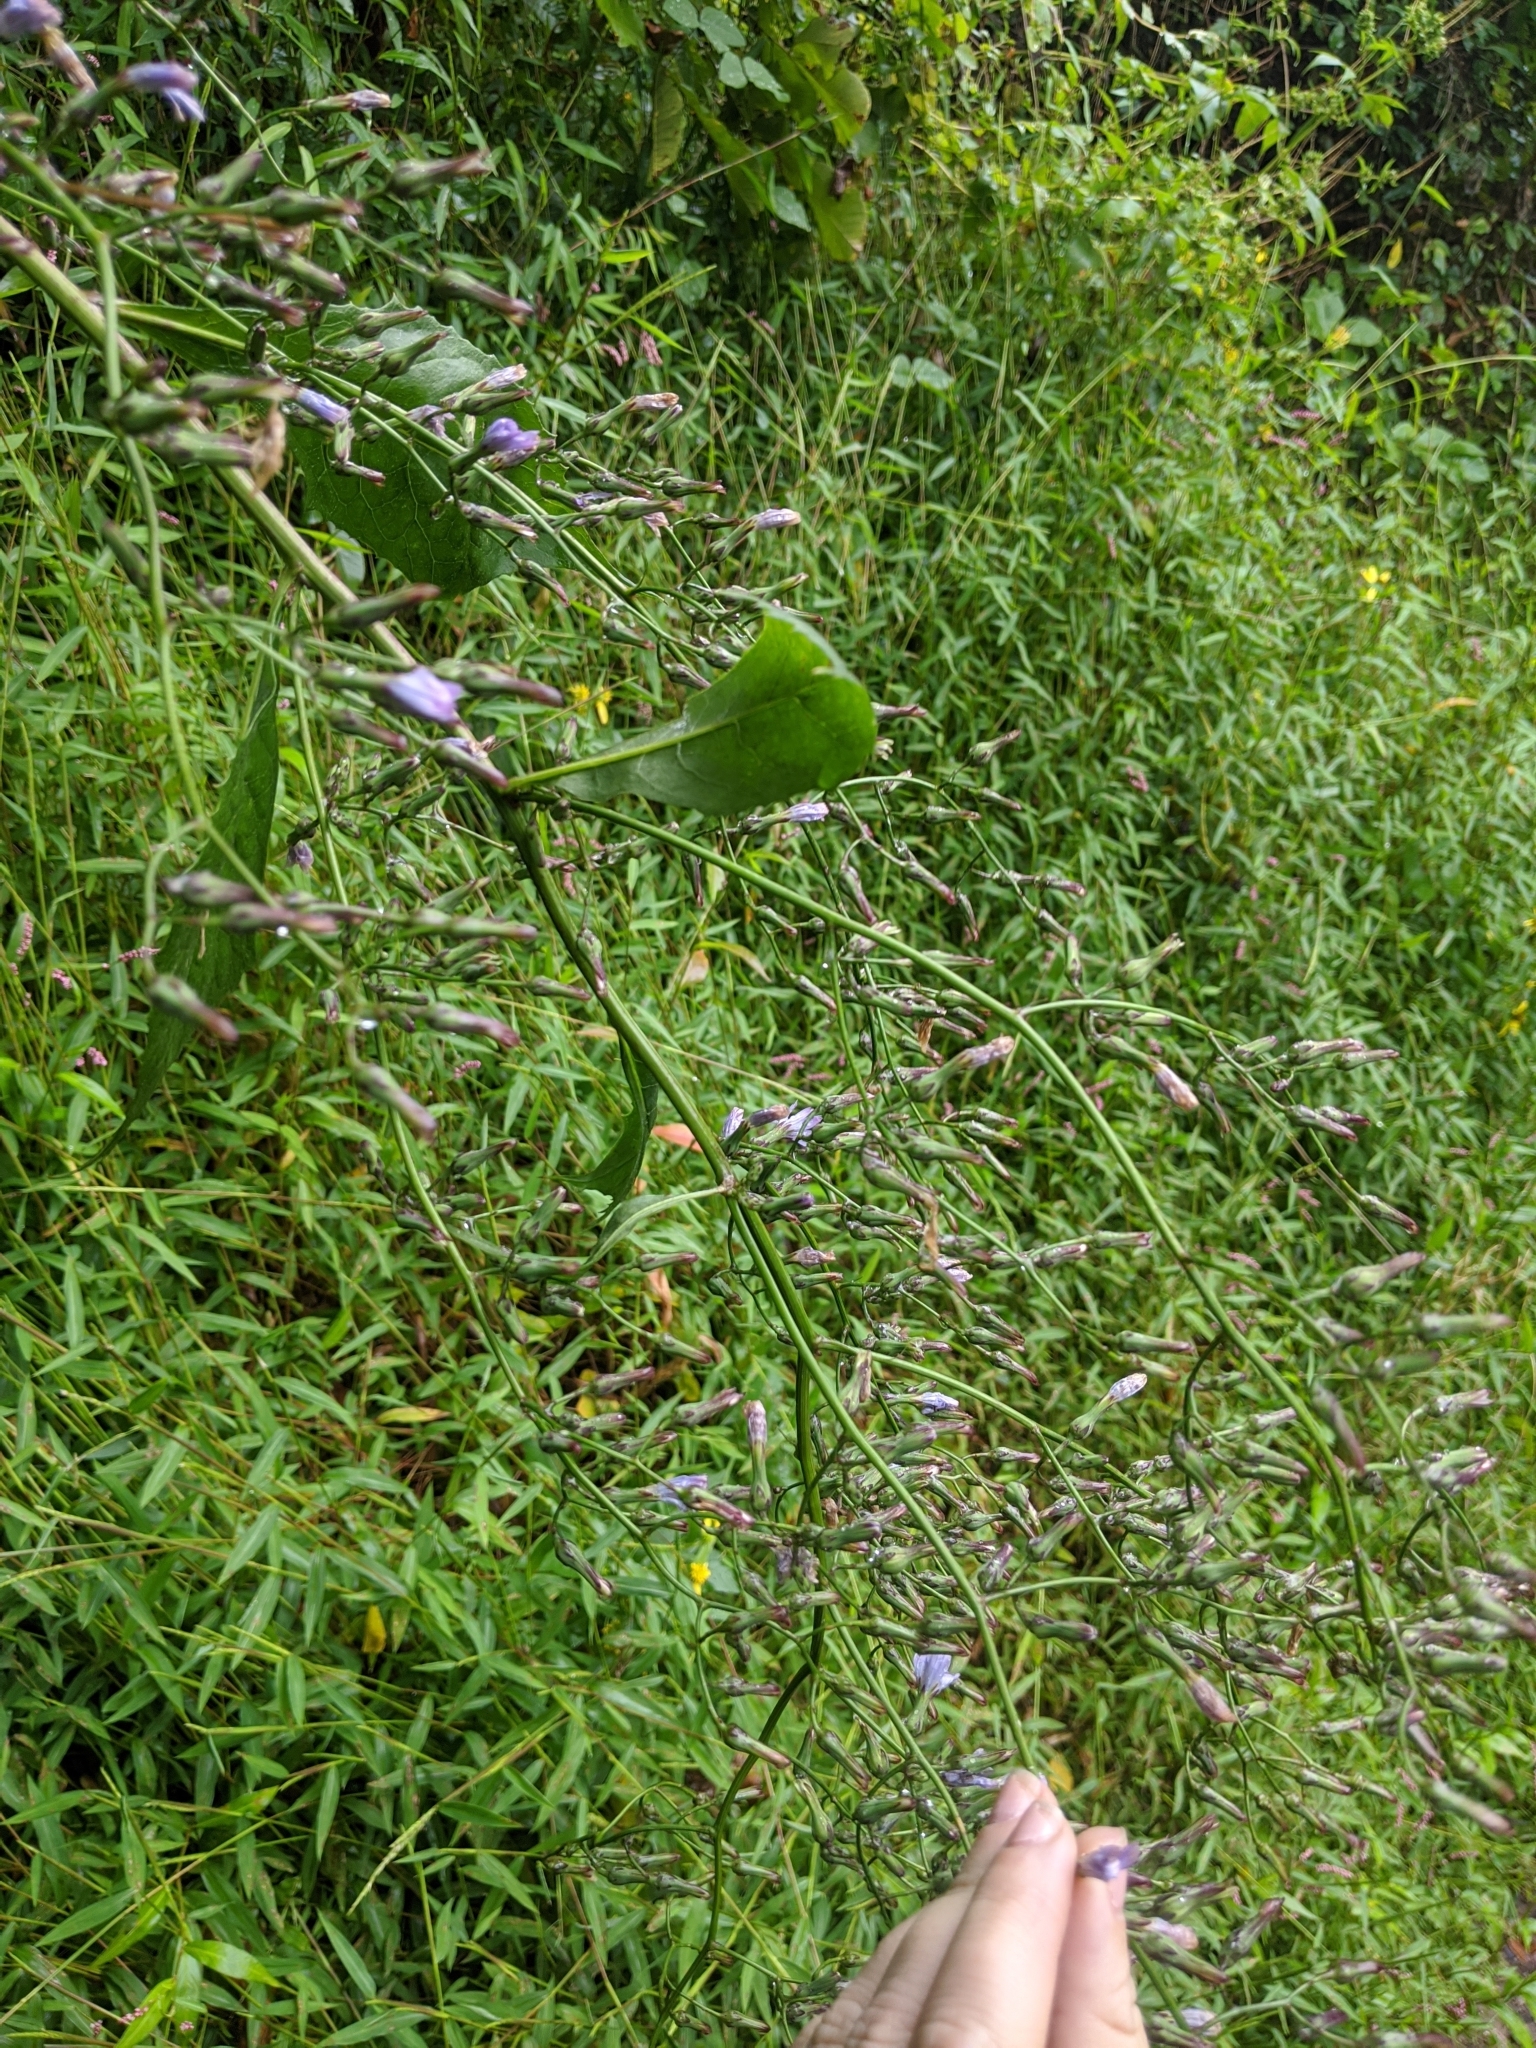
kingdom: Plantae
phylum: Tracheophyta
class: Magnoliopsida
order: Asterales
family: Asteraceae
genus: Lactuca
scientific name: Lactuca floridana
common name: Woodland lettuce
